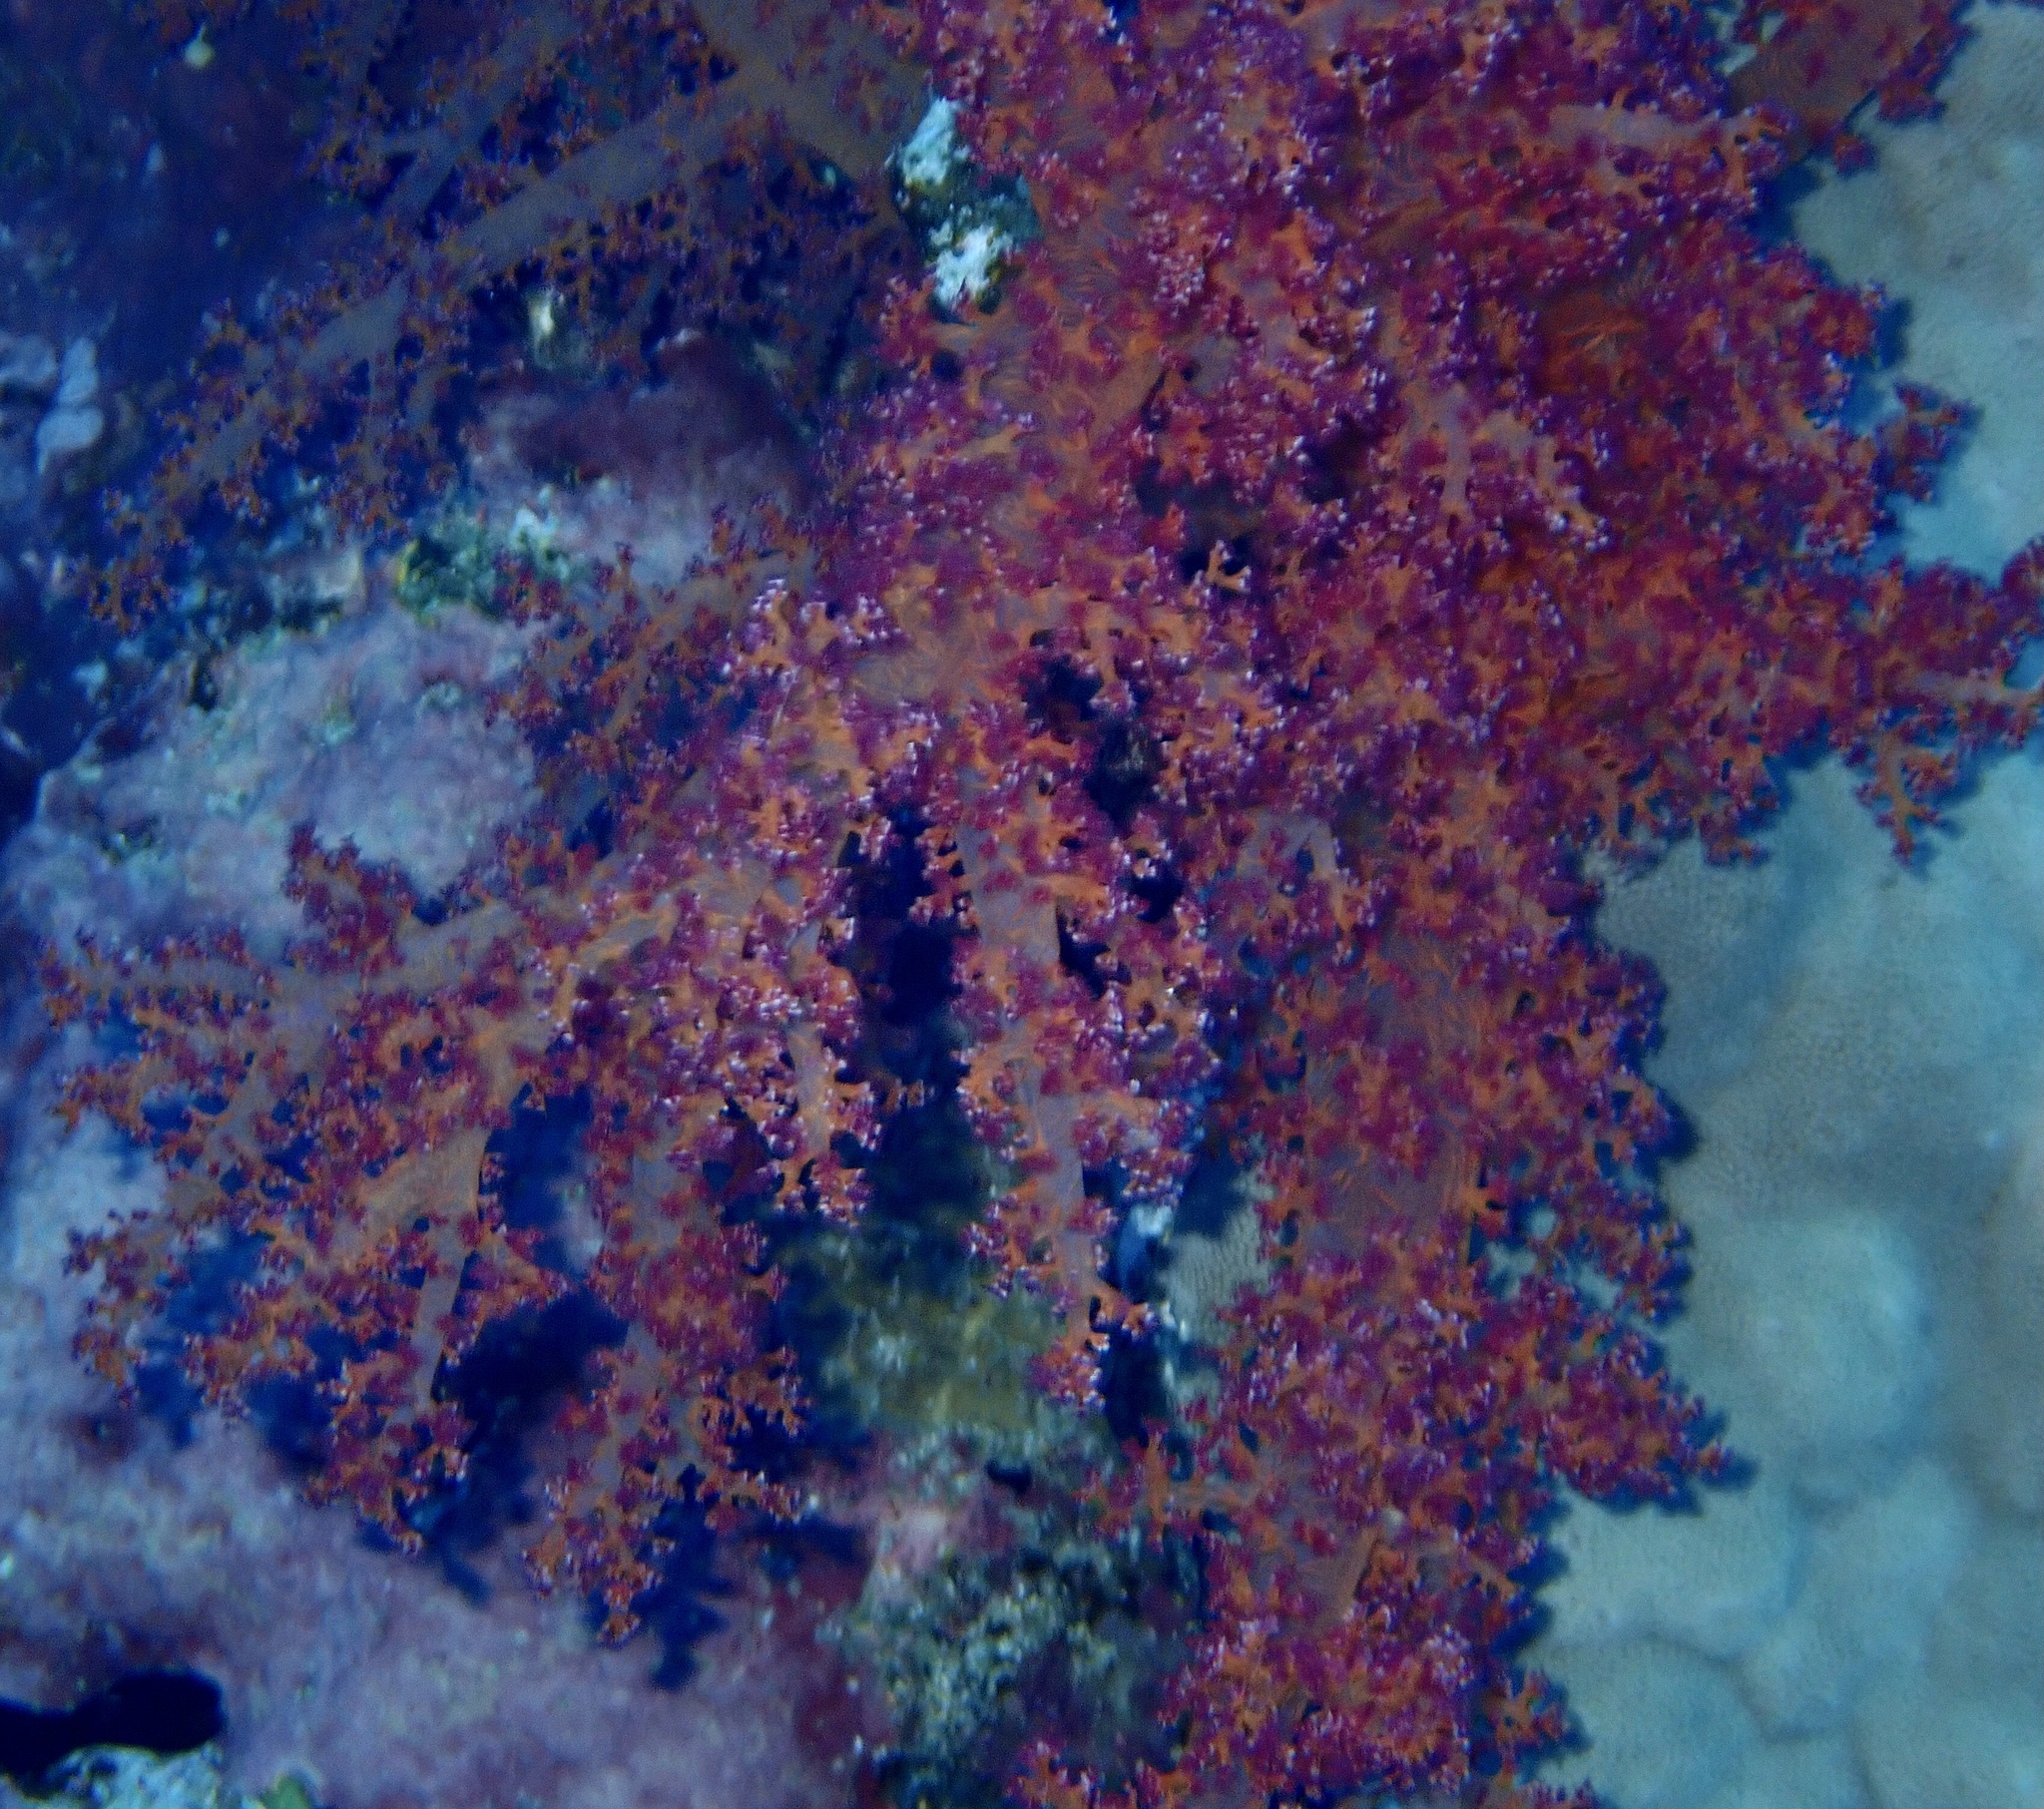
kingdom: Animalia
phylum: Cnidaria
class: Anthozoa
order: Malacalcyonacea
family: Nephtheidae
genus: Dendronephthya
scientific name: Dendronephthya hemprichi
